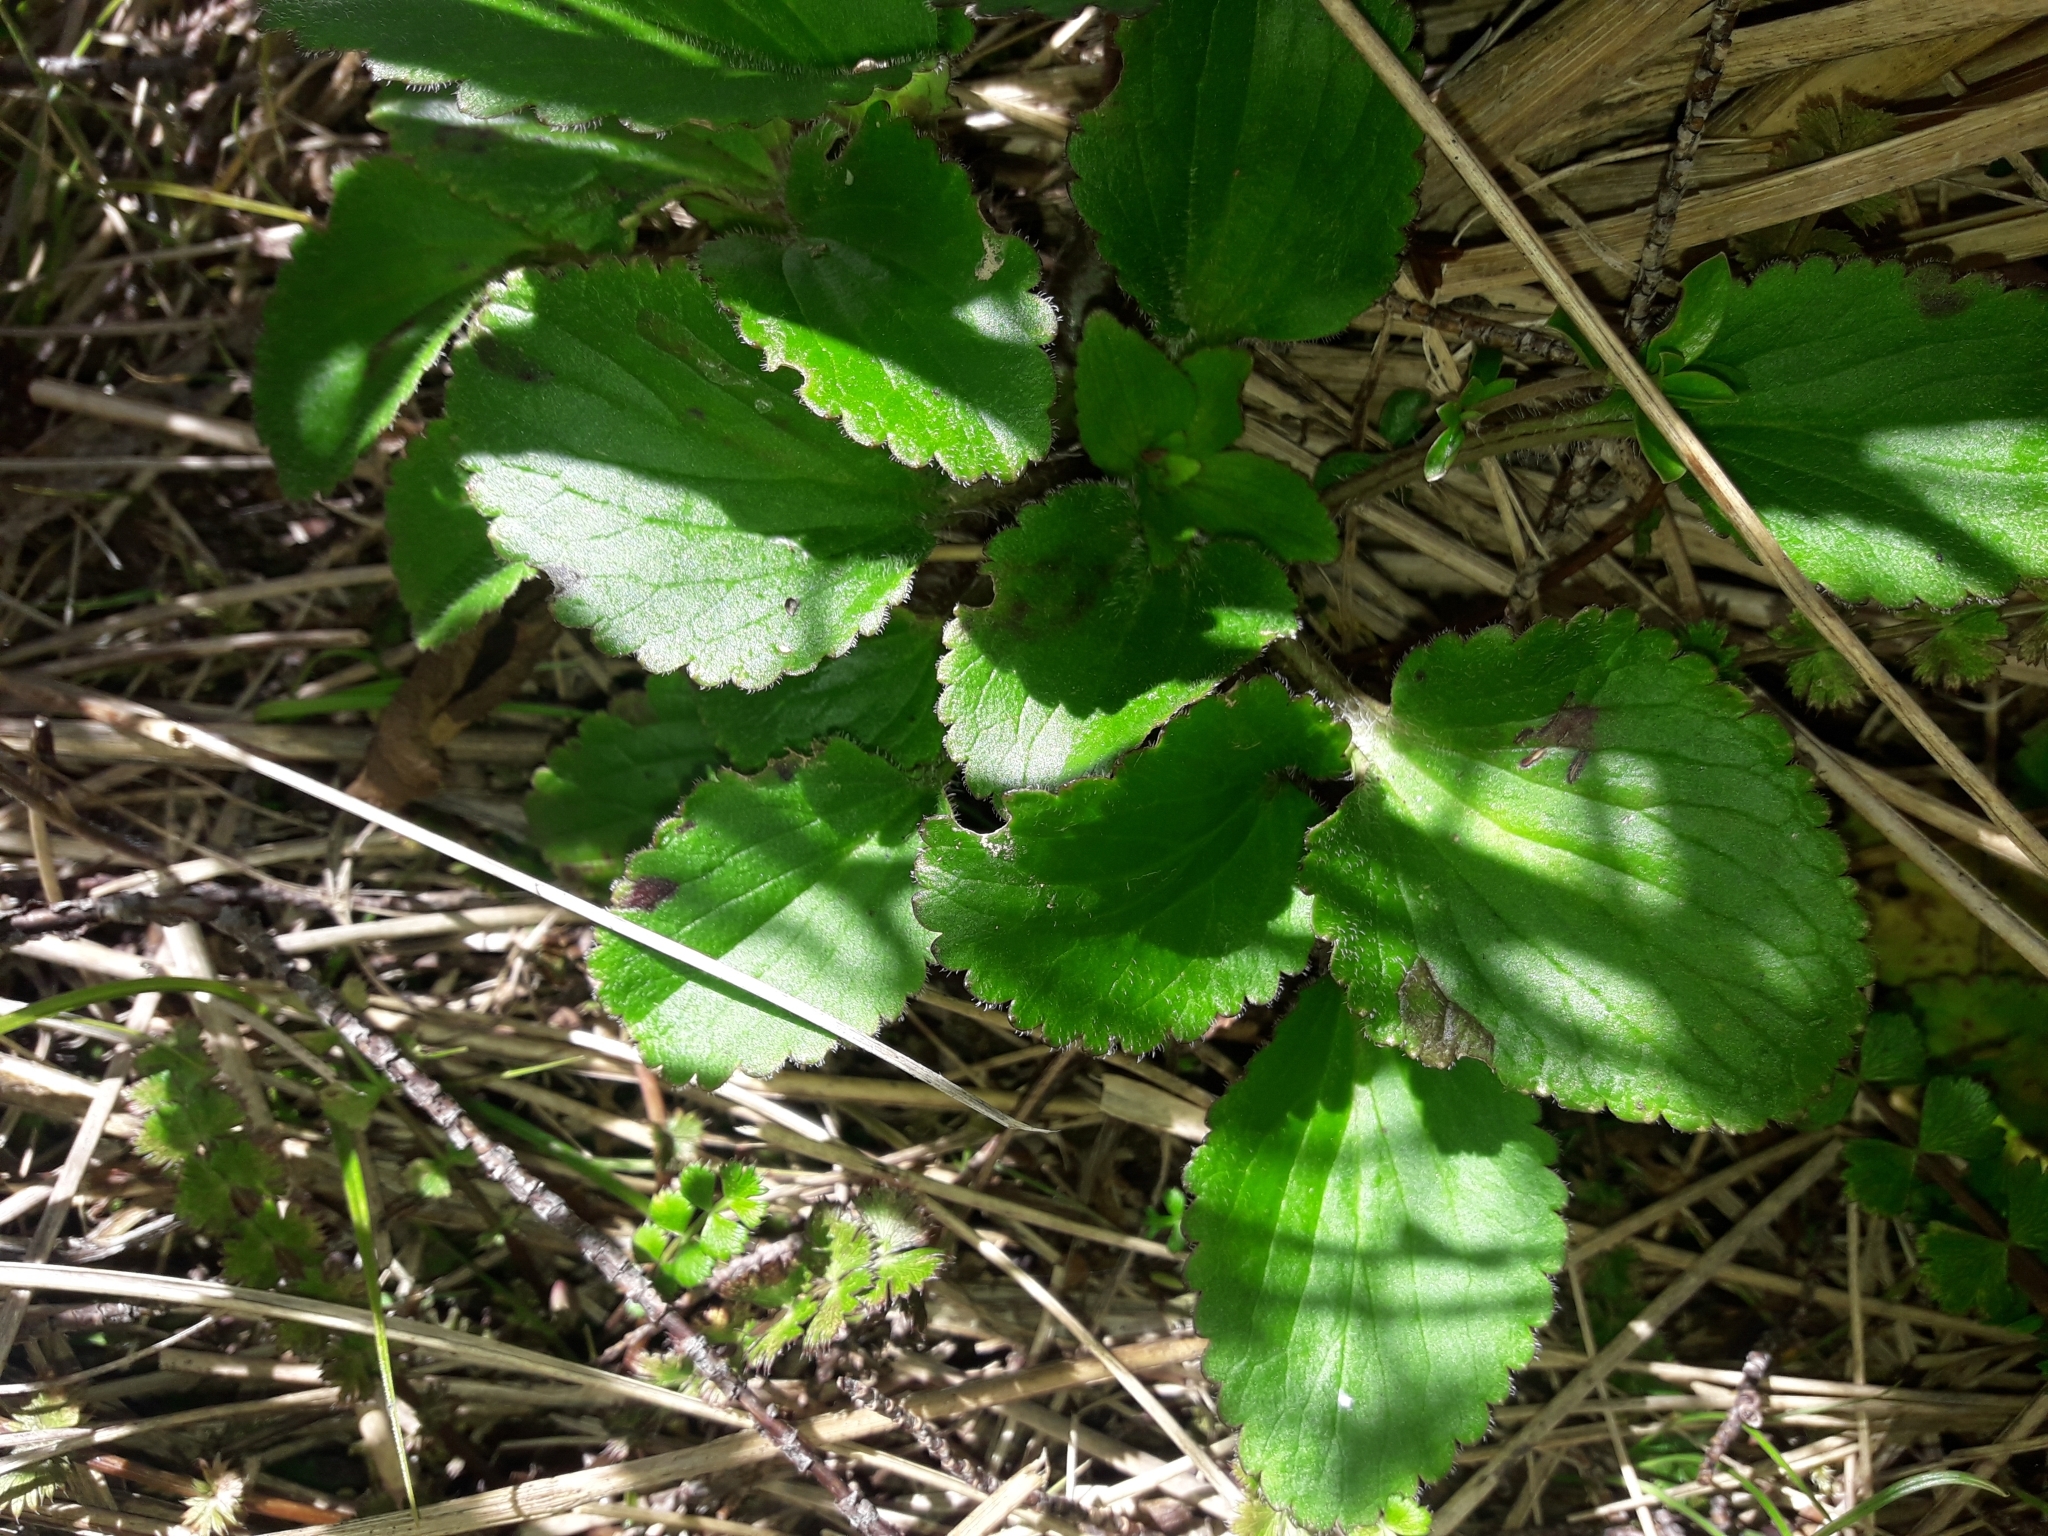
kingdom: Plantae
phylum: Tracheophyta
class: Magnoliopsida
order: Lamiales
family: Plantaginaceae
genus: Ourisia
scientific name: Ourisia macrophylla
